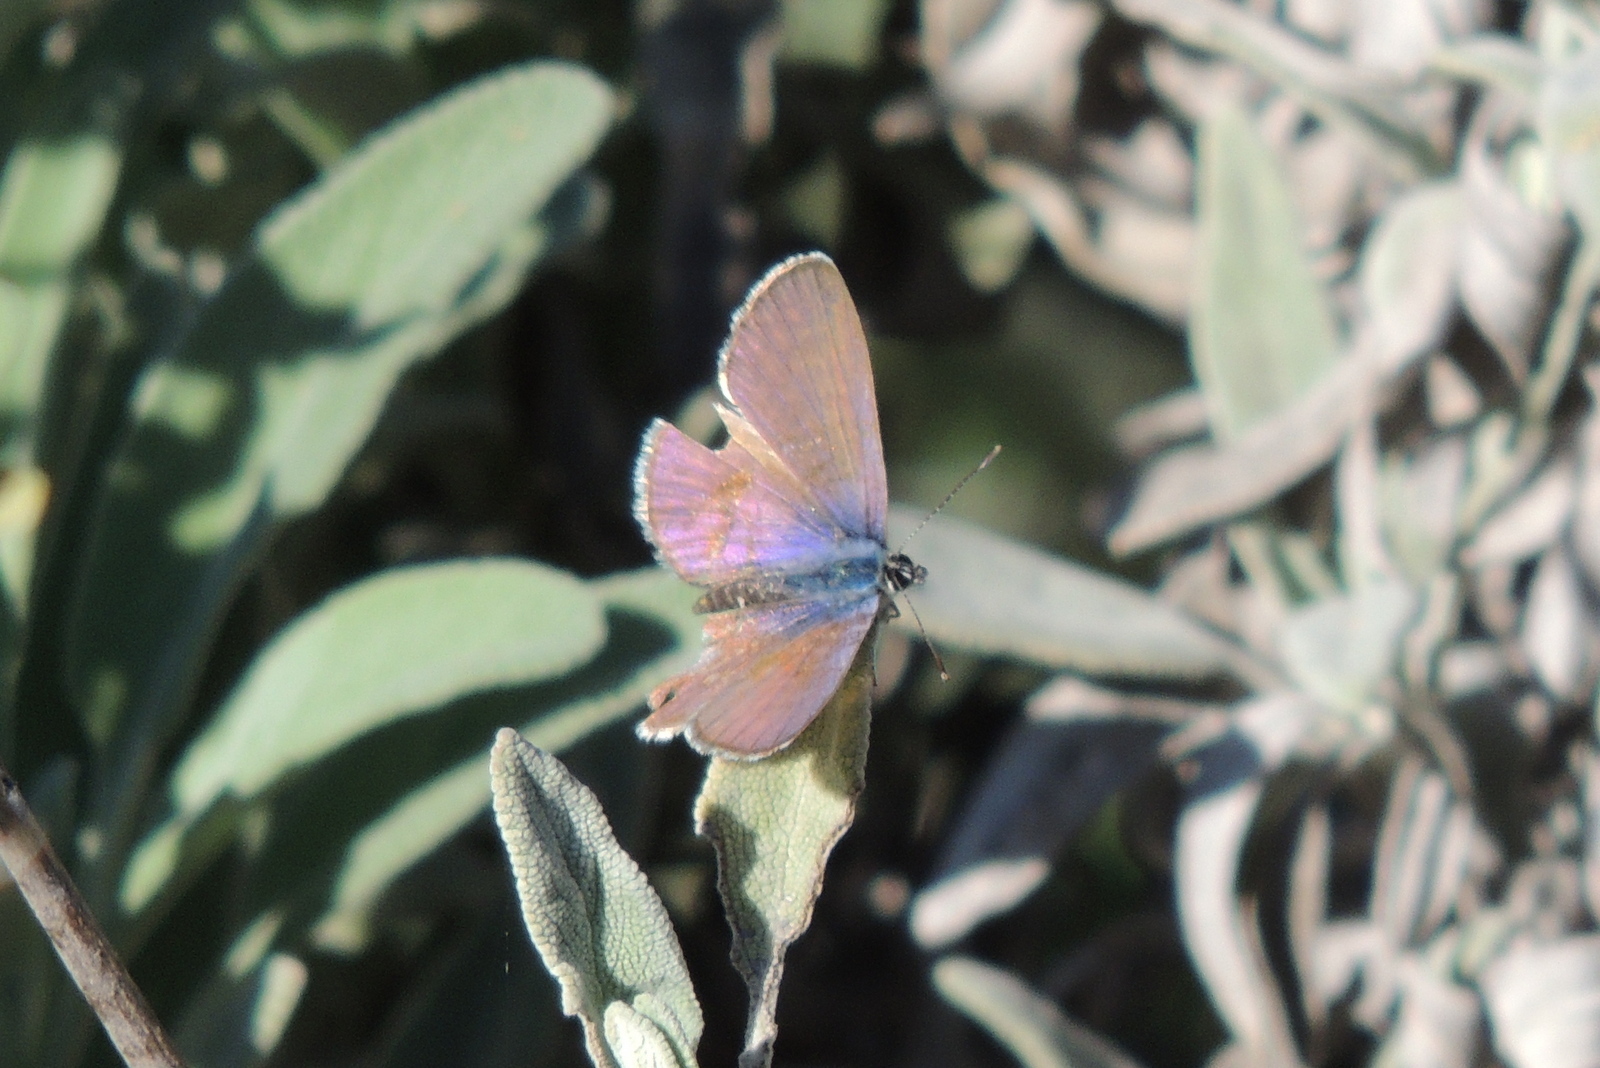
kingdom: Animalia
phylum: Arthropoda
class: Insecta
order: Lepidoptera
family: Lycaenidae
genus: Leptotes
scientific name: Leptotes marina
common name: Marine blue
